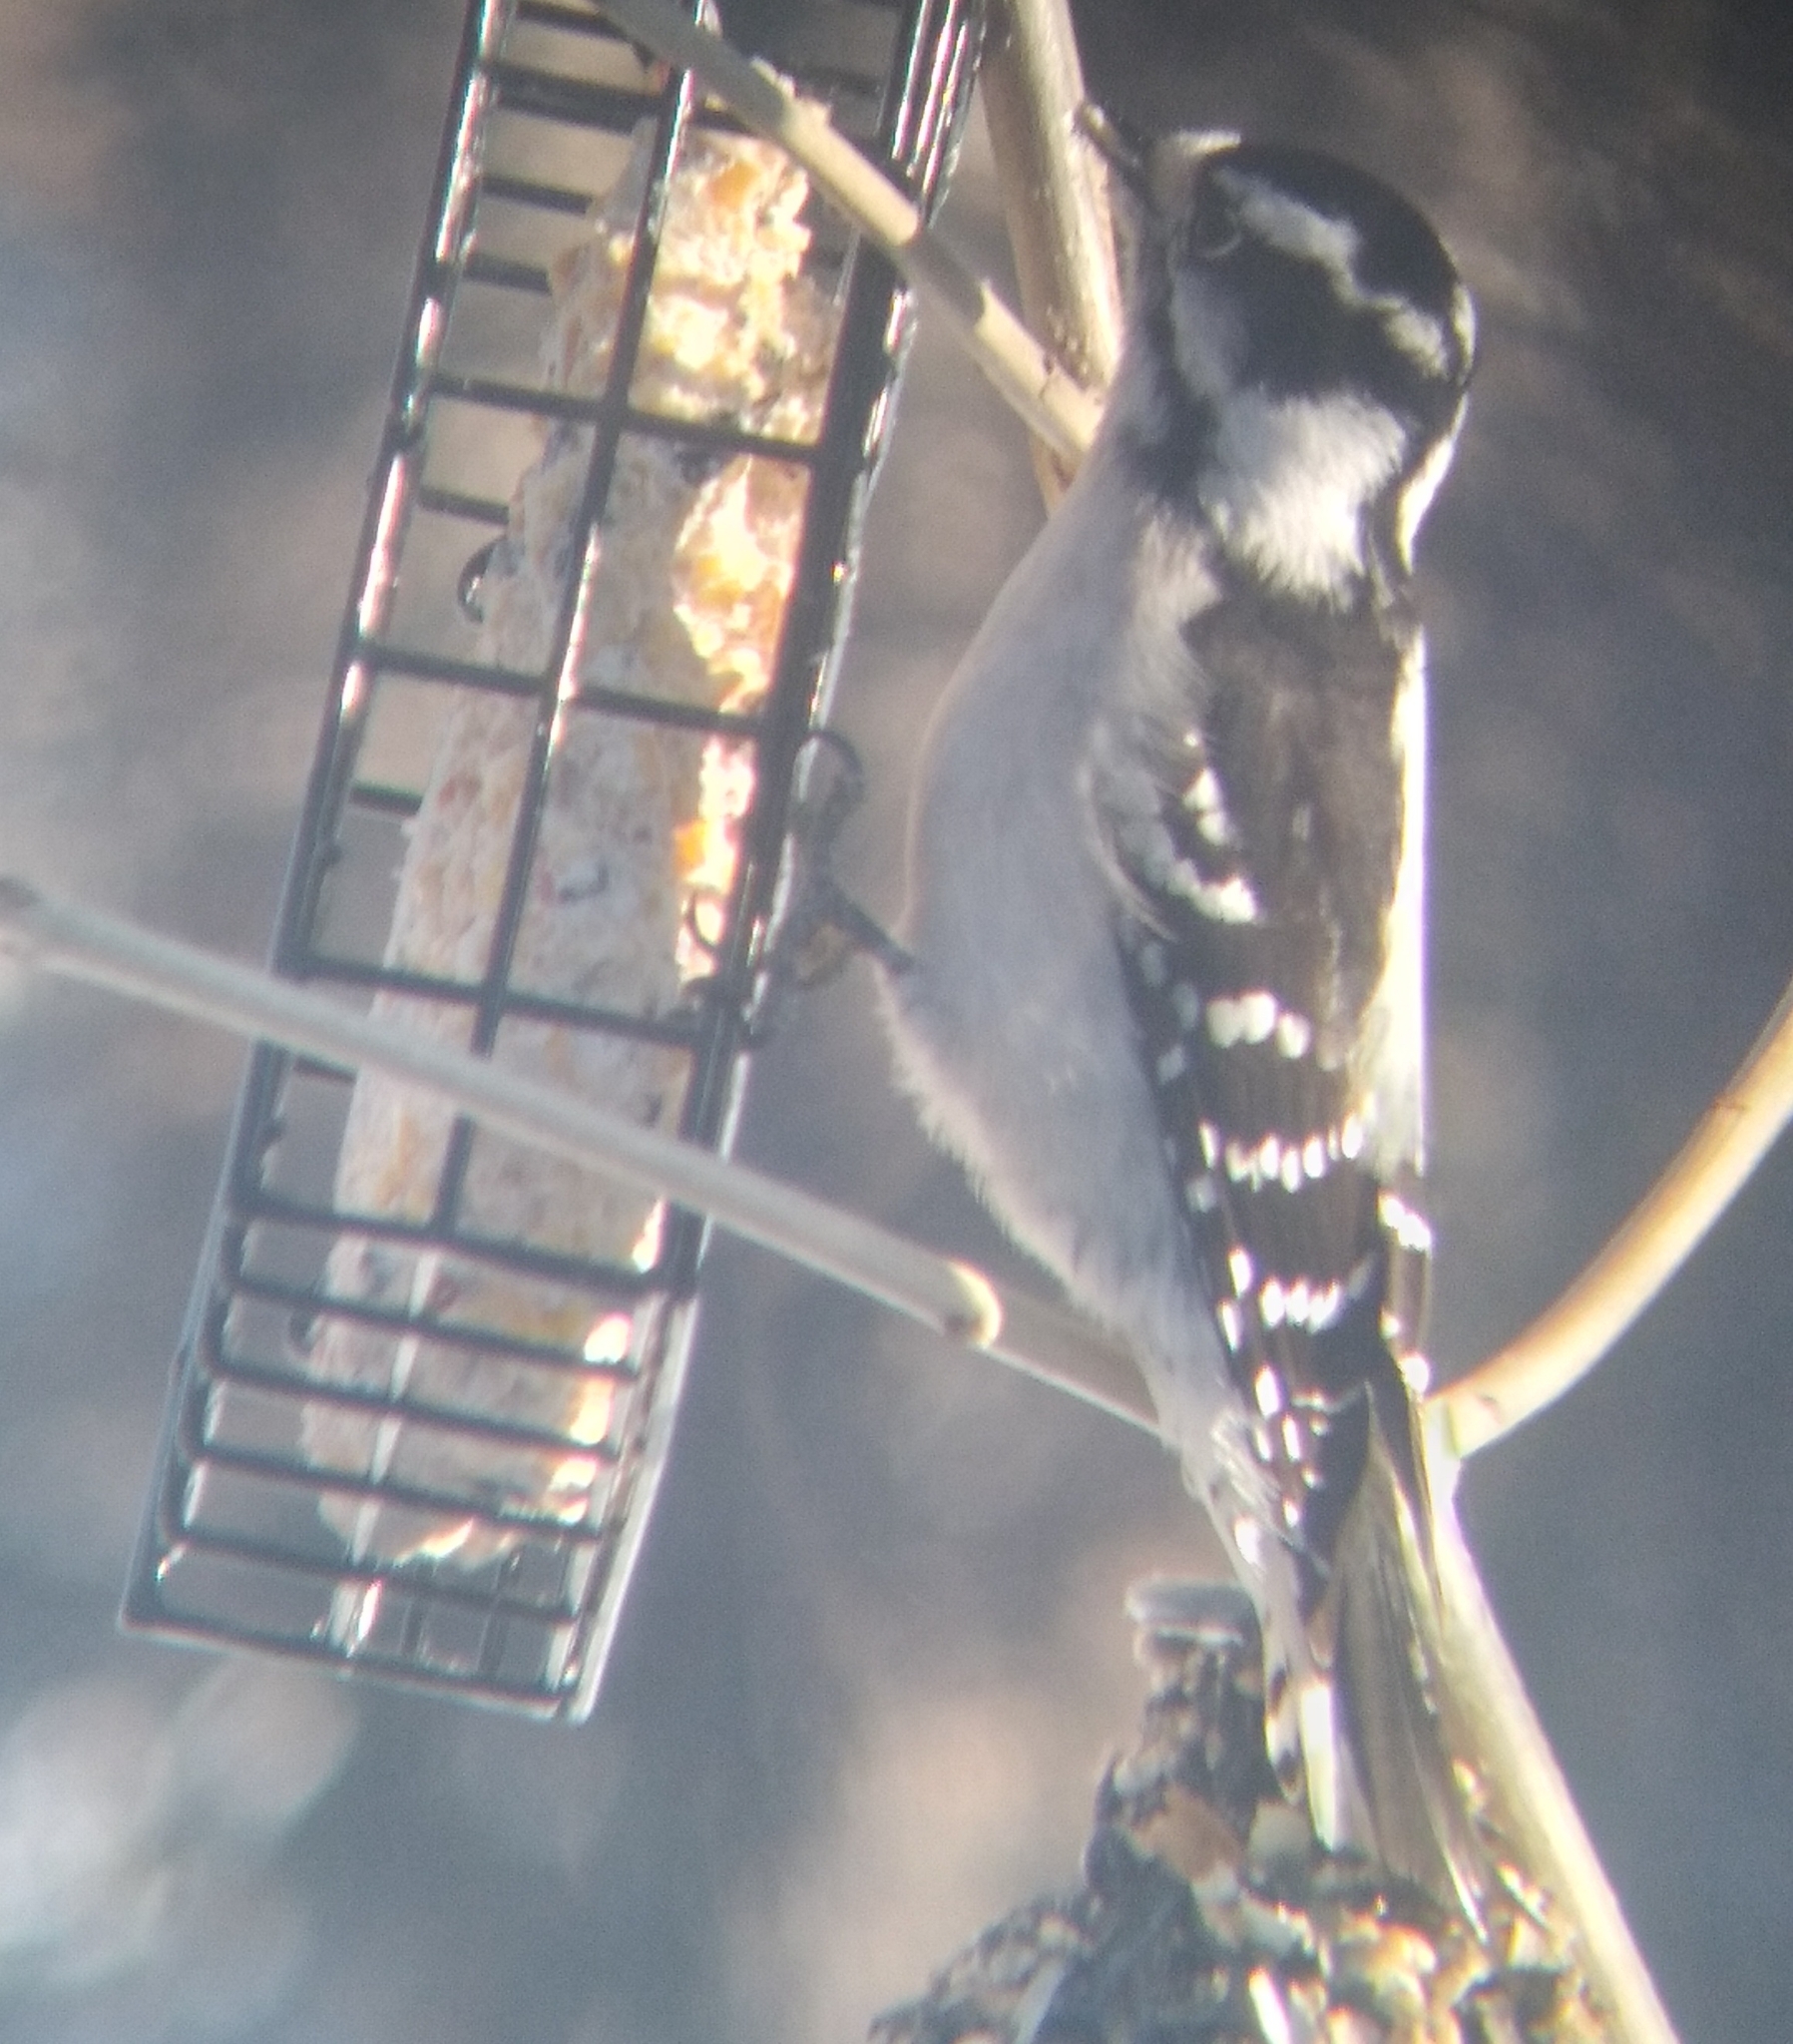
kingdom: Animalia
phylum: Chordata
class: Aves
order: Piciformes
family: Picidae
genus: Dryobates
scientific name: Dryobates pubescens
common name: Downy woodpecker
